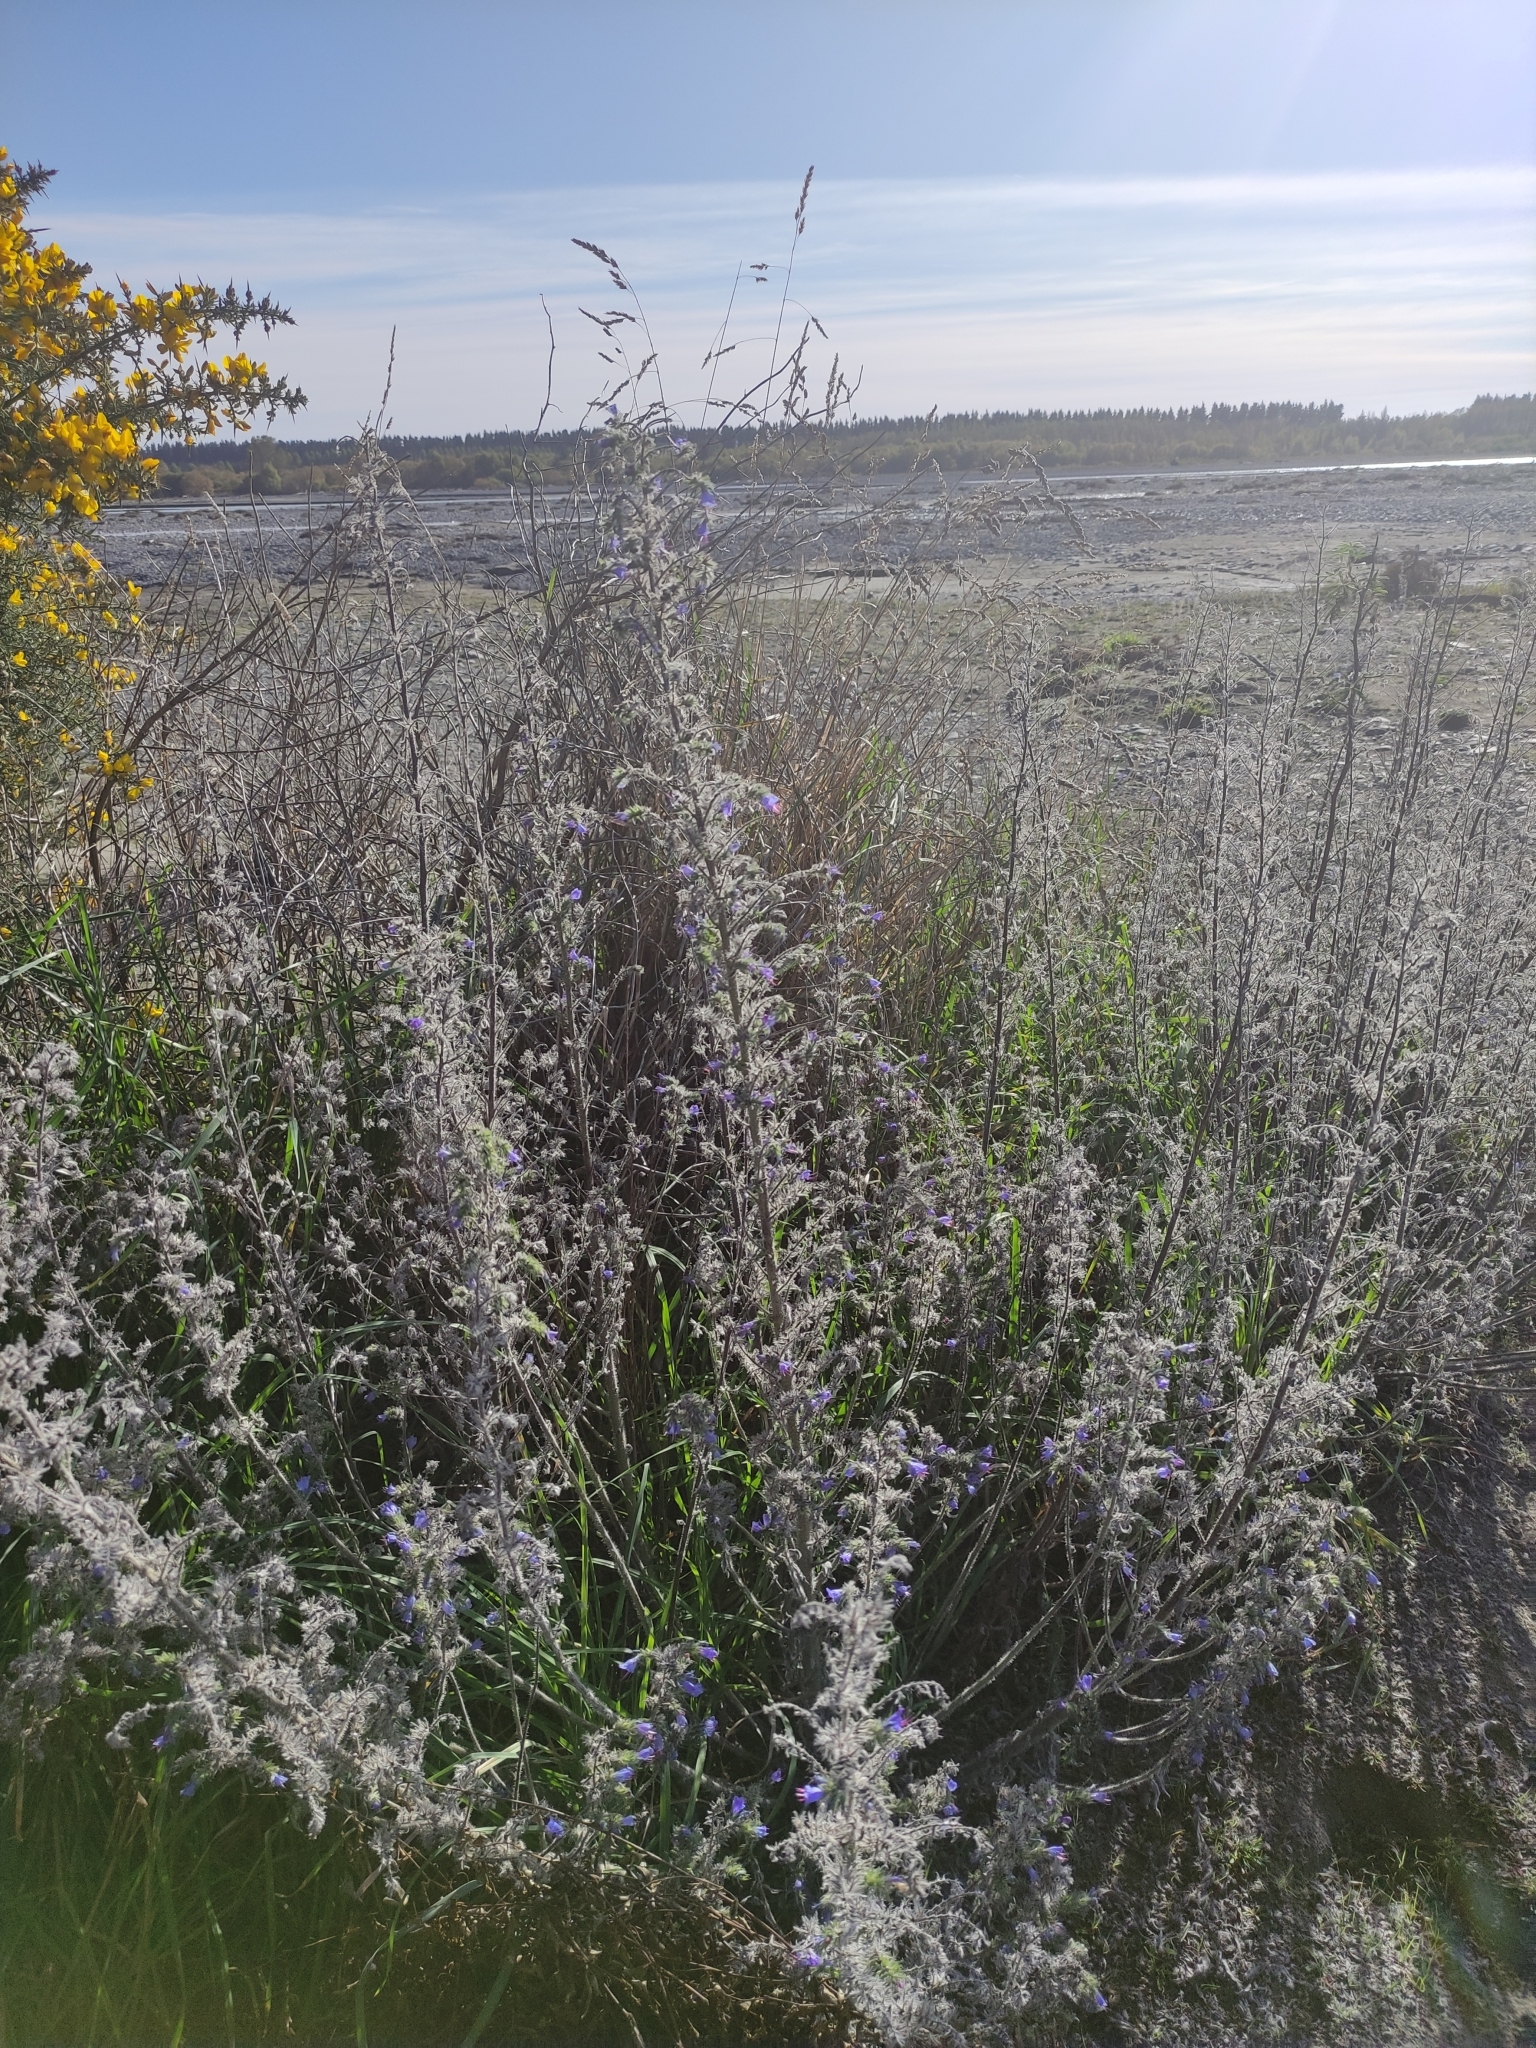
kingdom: Plantae
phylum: Tracheophyta
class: Magnoliopsida
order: Boraginales
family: Boraginaceae
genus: Echium
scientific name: Echium vulgare
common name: Common viper's bugloss
